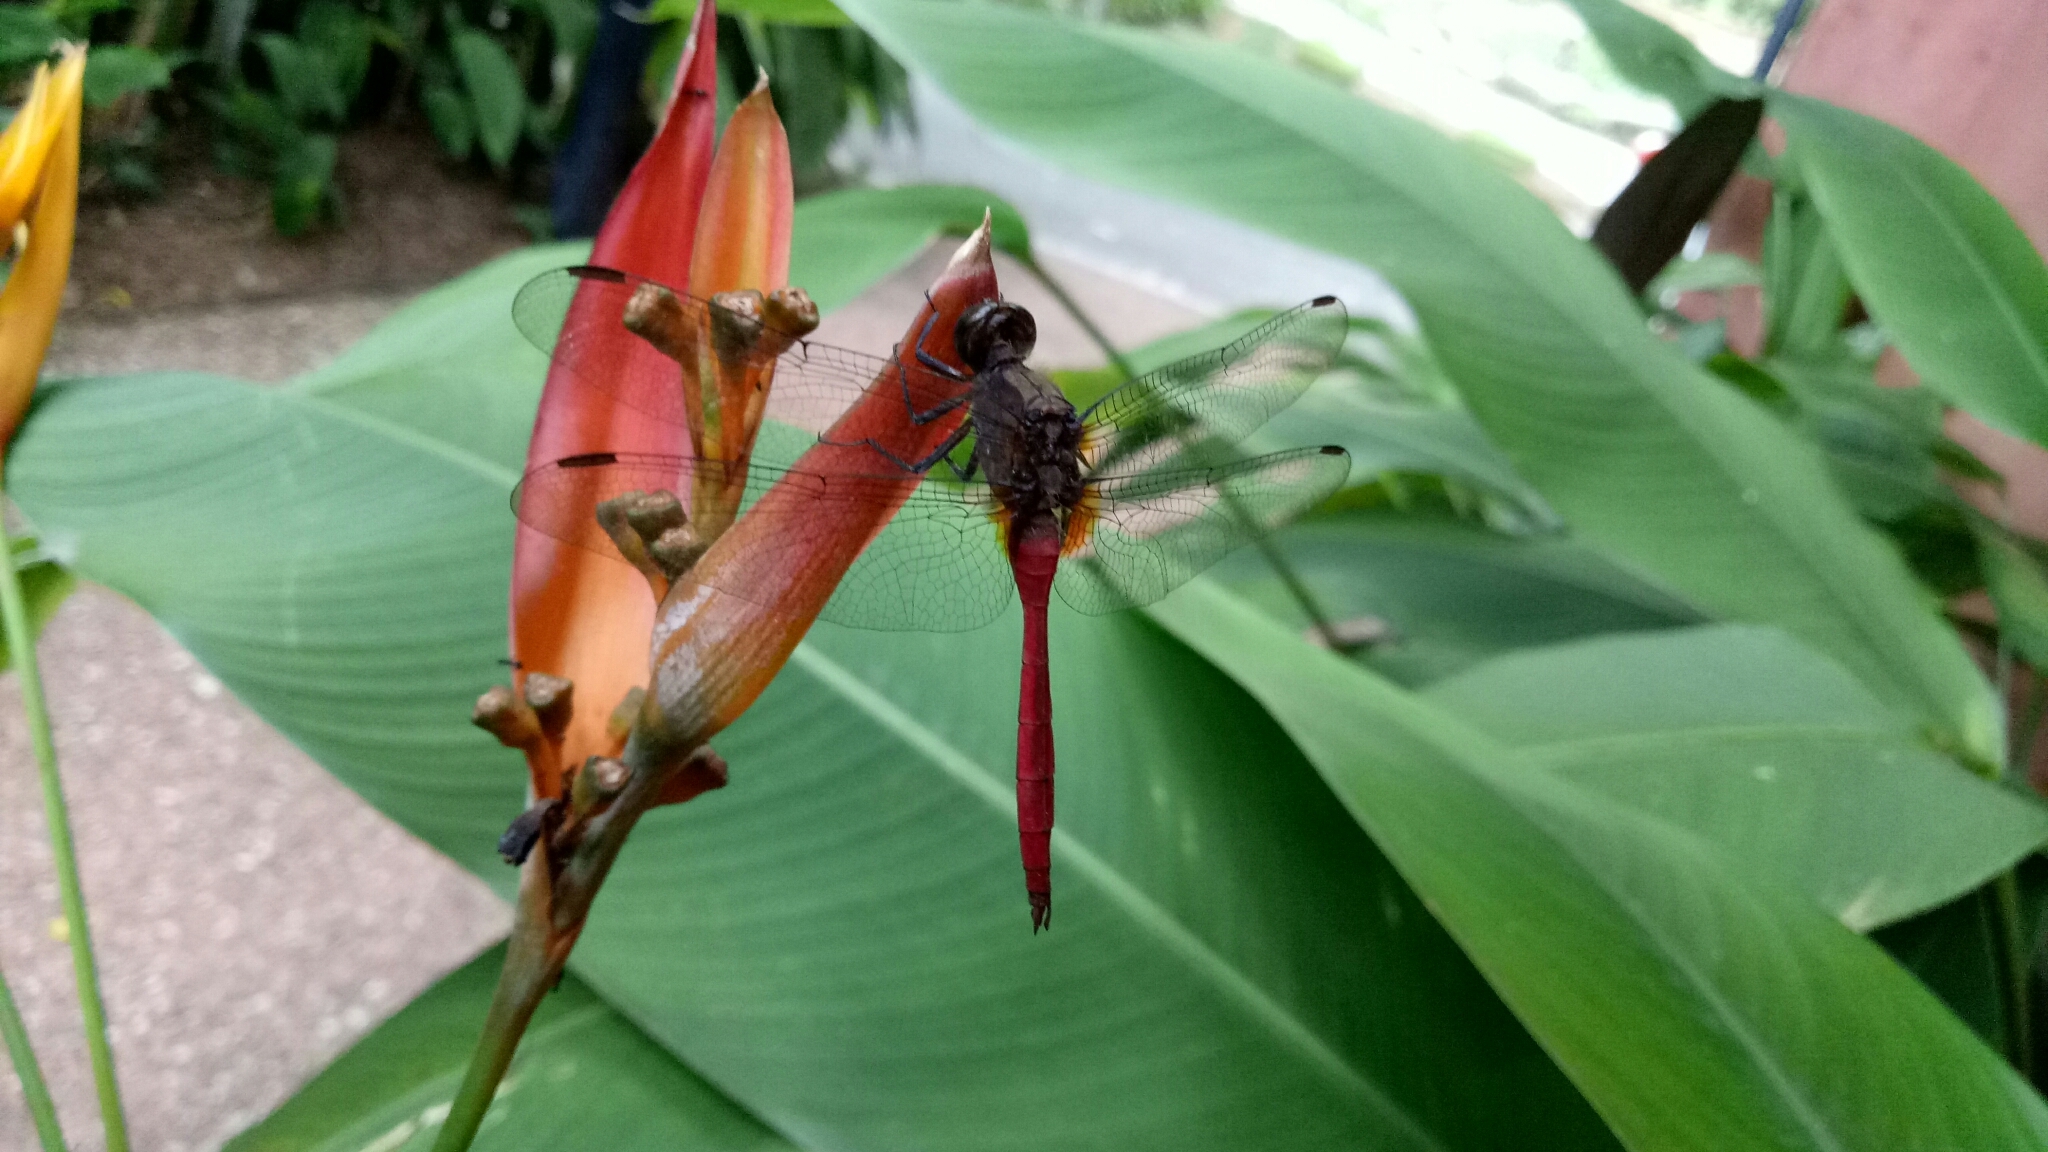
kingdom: Animalia
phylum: Arthropoda
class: Insecta
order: Odonata
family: Libellulidae
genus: Orthetrum
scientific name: Orthetrum villosovittatum
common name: Firery skimmer
